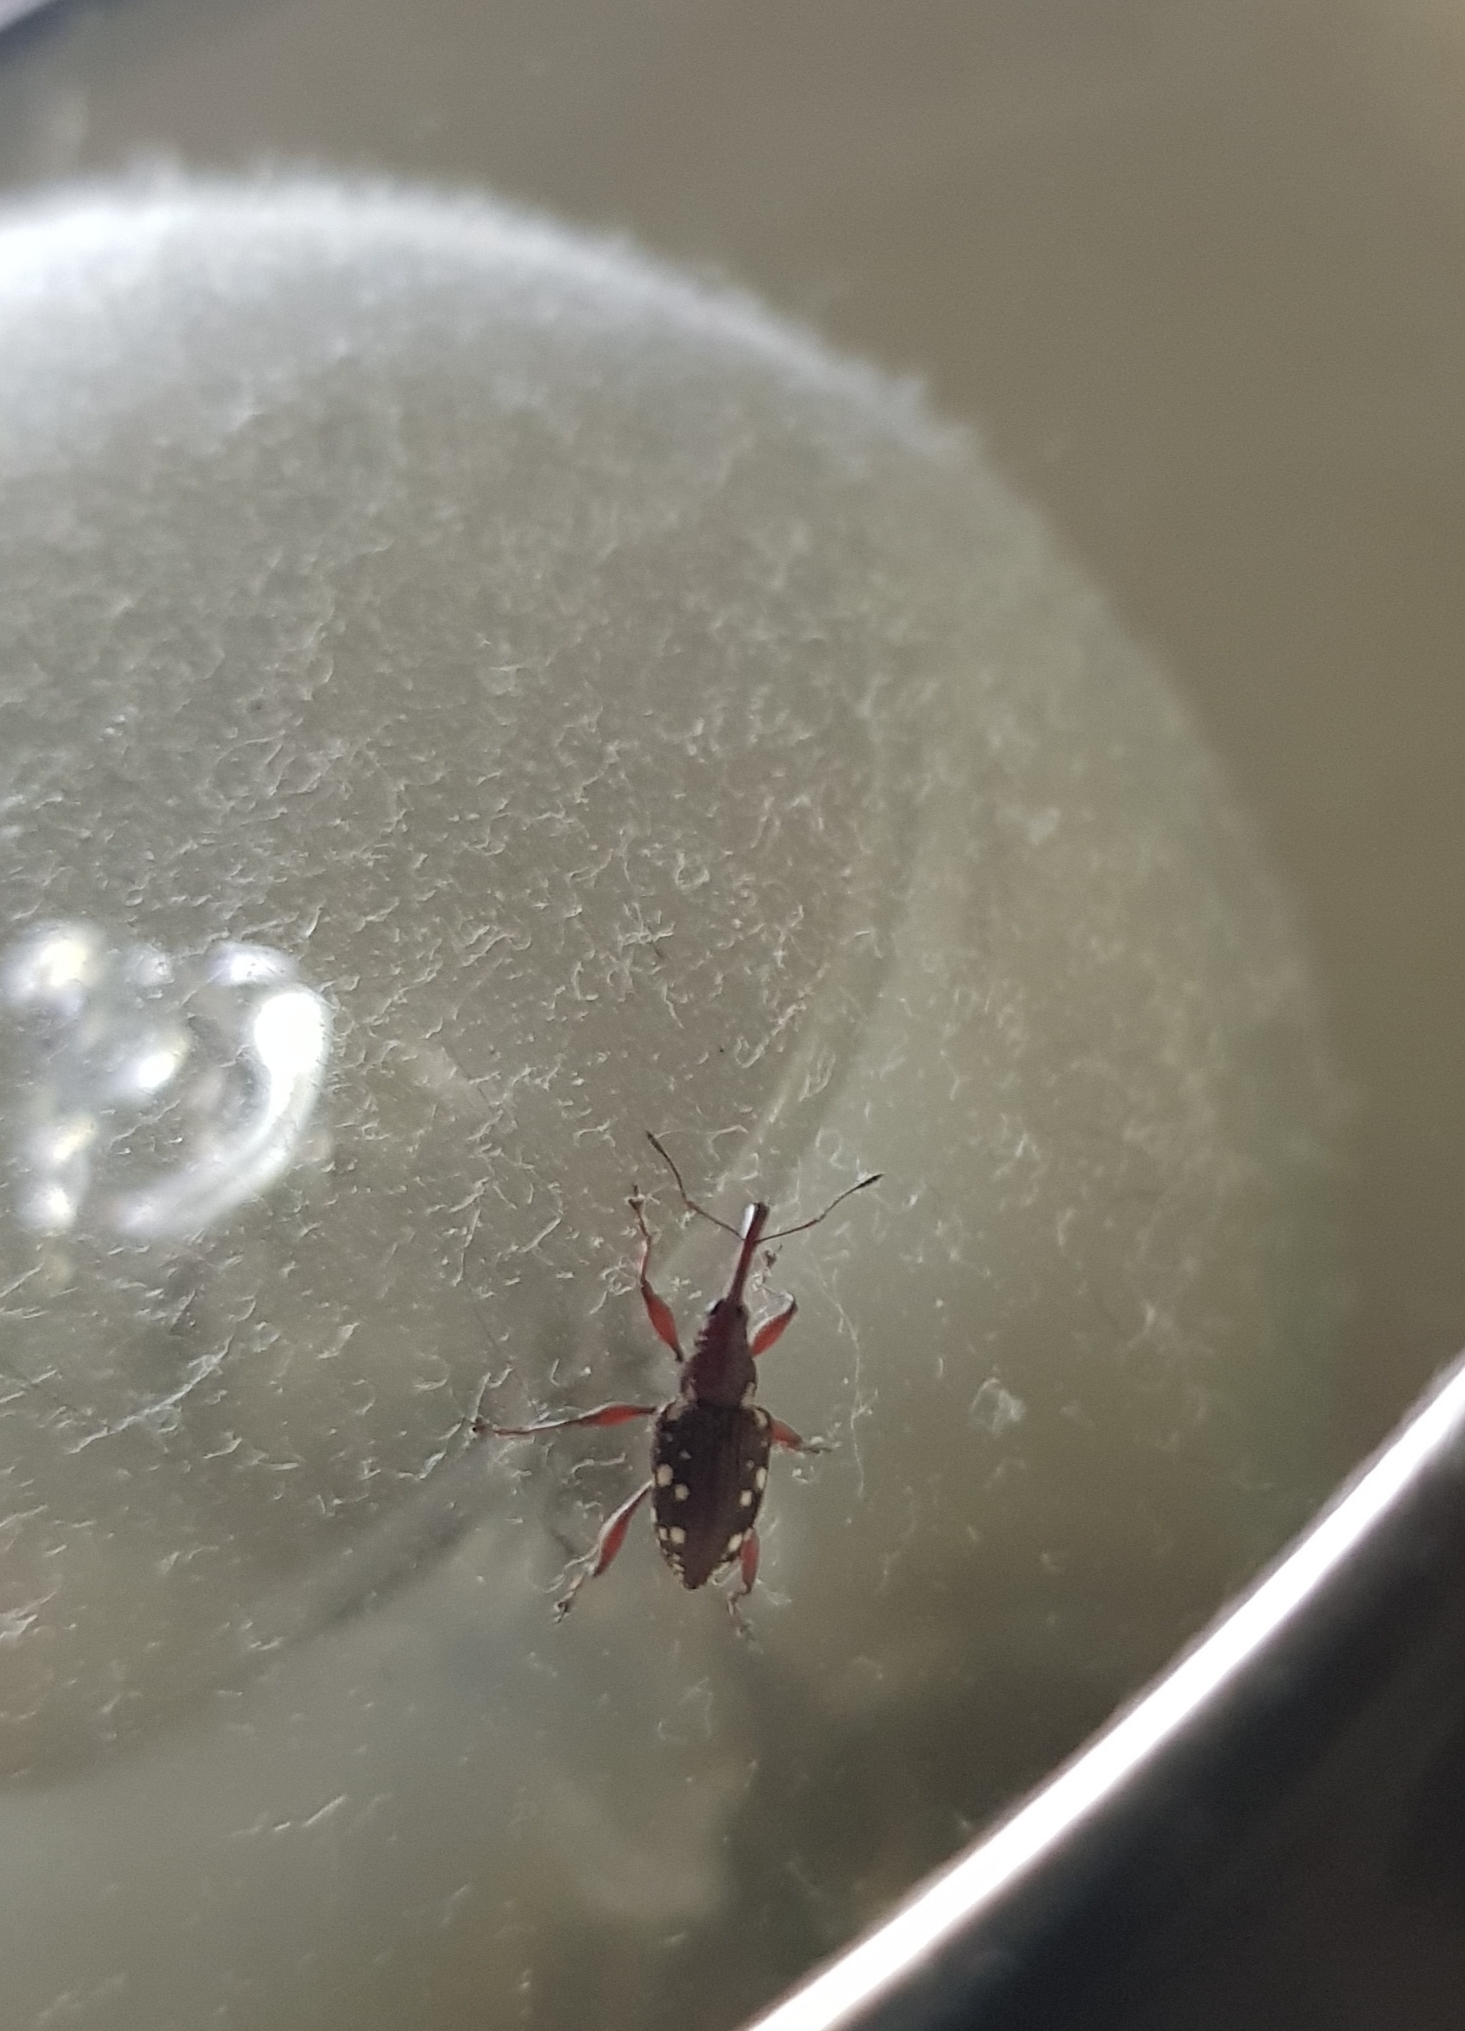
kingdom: Animalia
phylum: Arthropoda
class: Insecta
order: Coleoptera
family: Curculionidae
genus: Meriphus
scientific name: Meriphus guttatus
